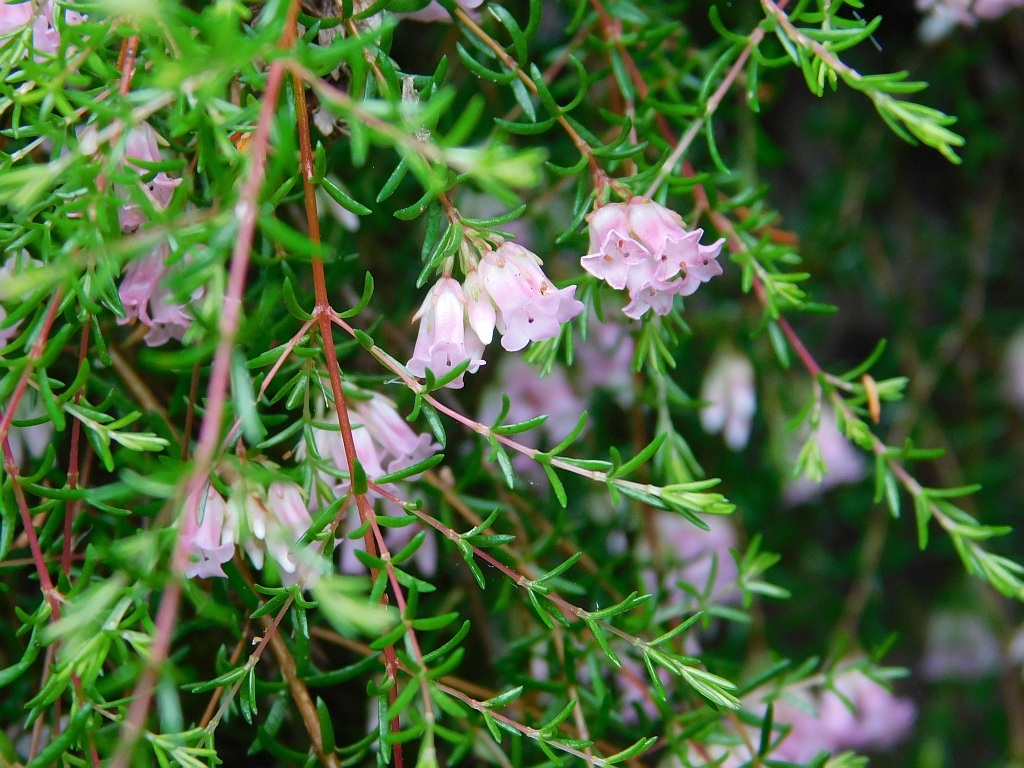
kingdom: Plantae
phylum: Tracheophyta
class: Magnoliopsida
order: Ericales
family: Ericaceae
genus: Erica
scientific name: Erica leucantha
